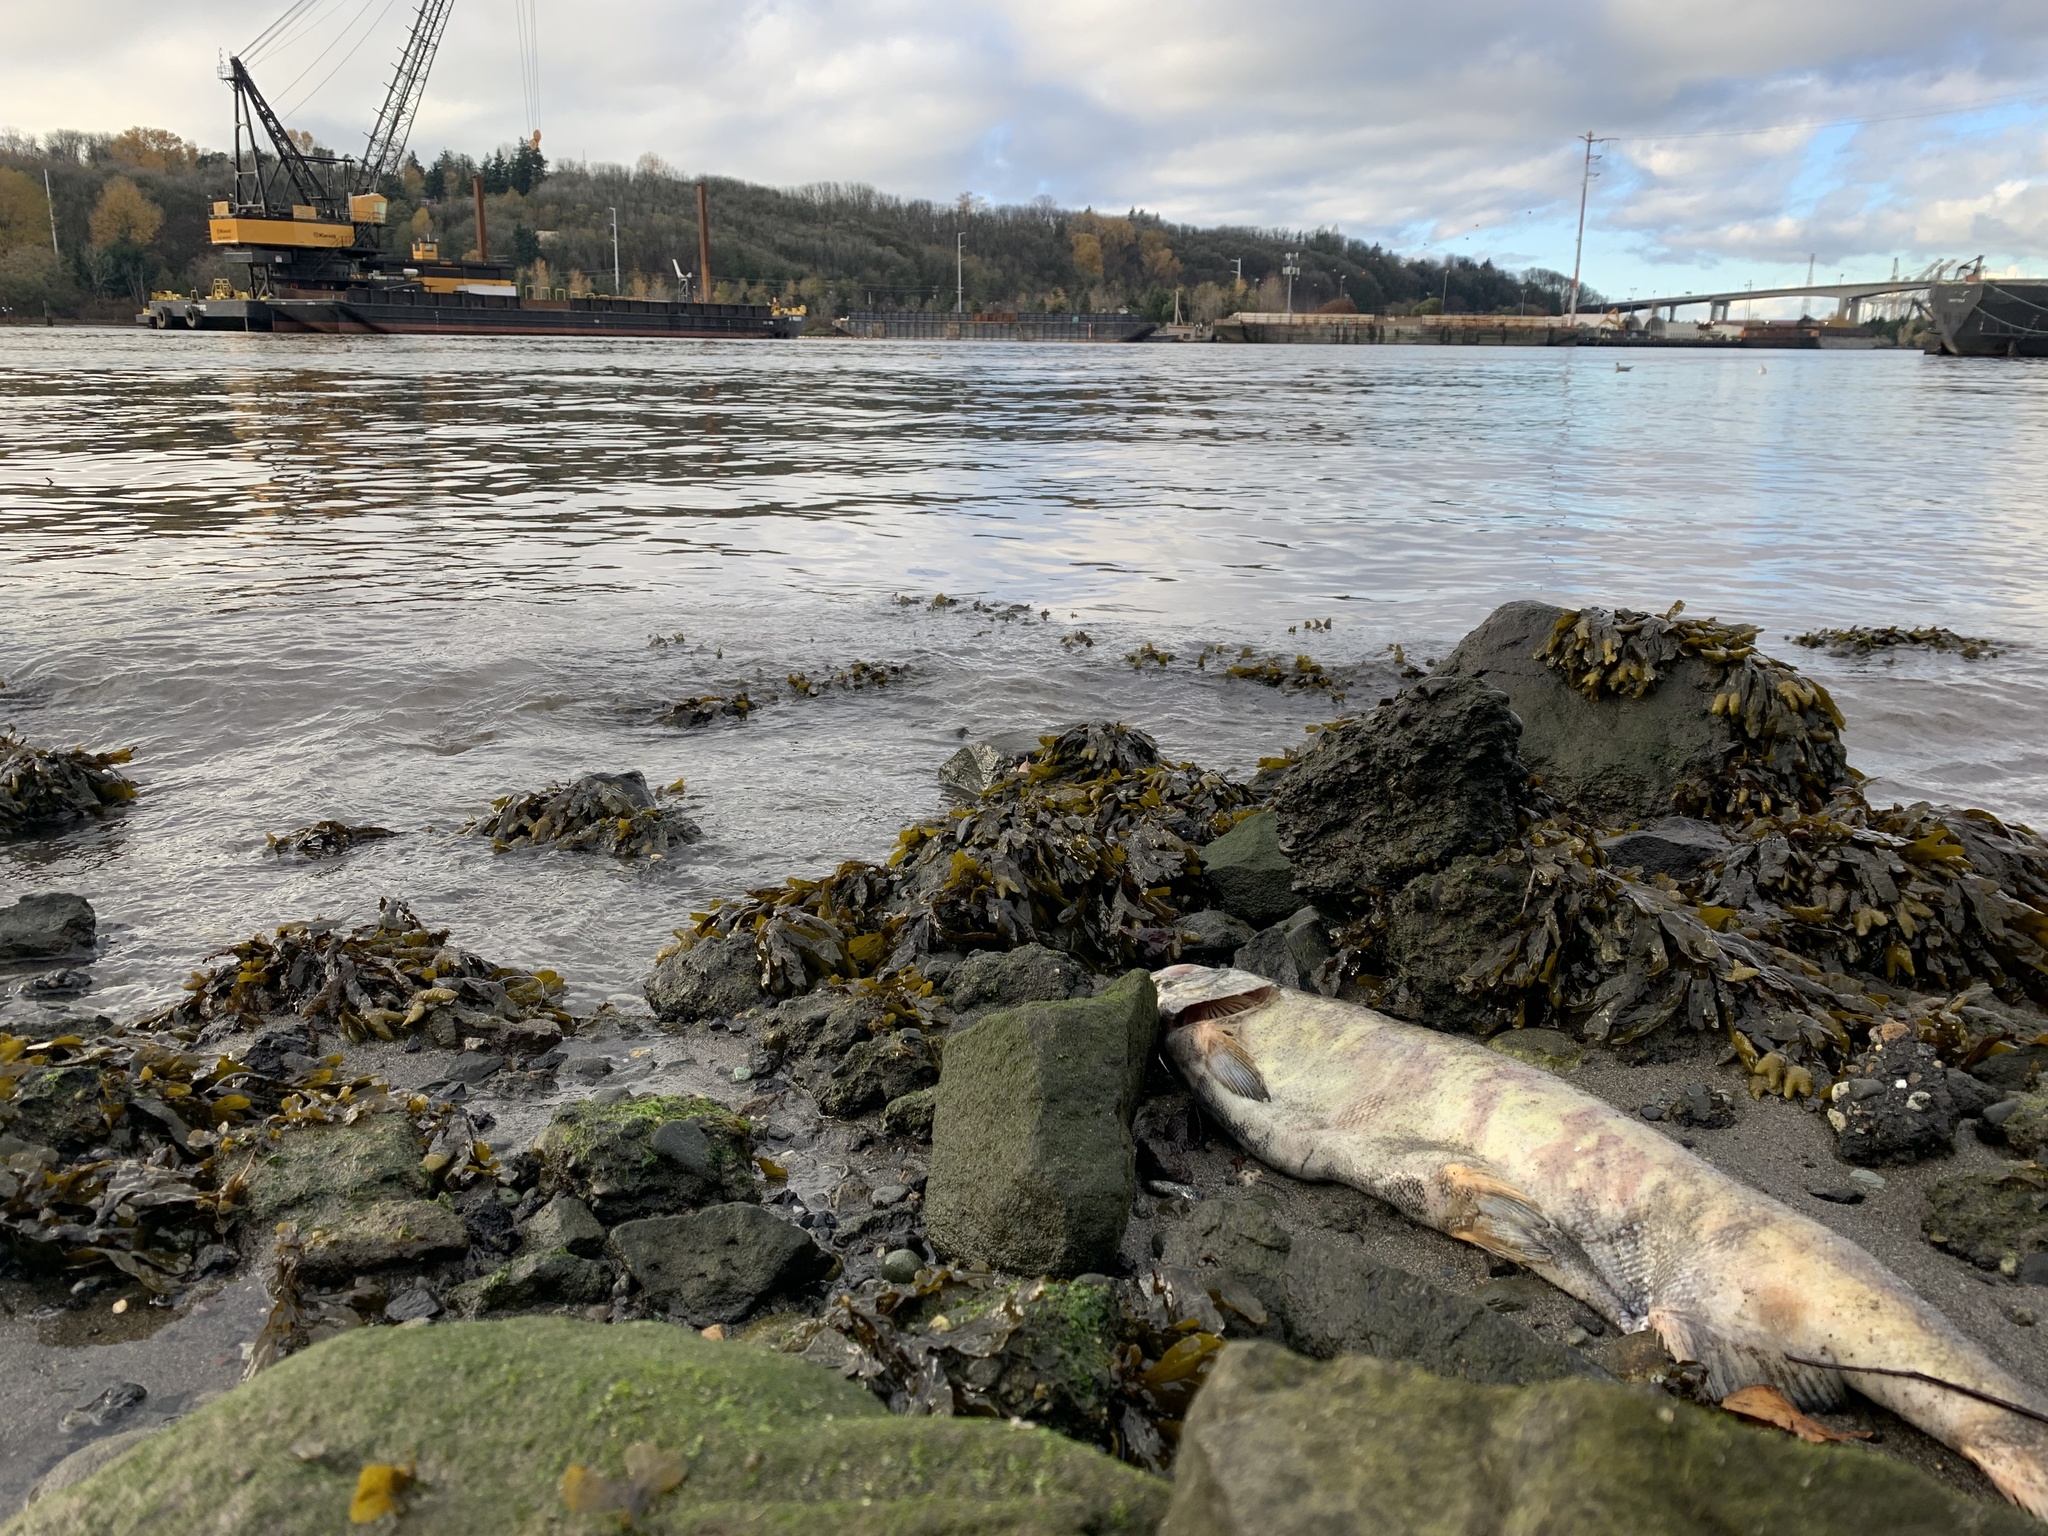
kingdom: Animalia
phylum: Chordata
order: Salmoniformes
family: Salmonidae
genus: Oncorhynchus
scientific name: Oncorhynchus keta
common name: Chum salmon
